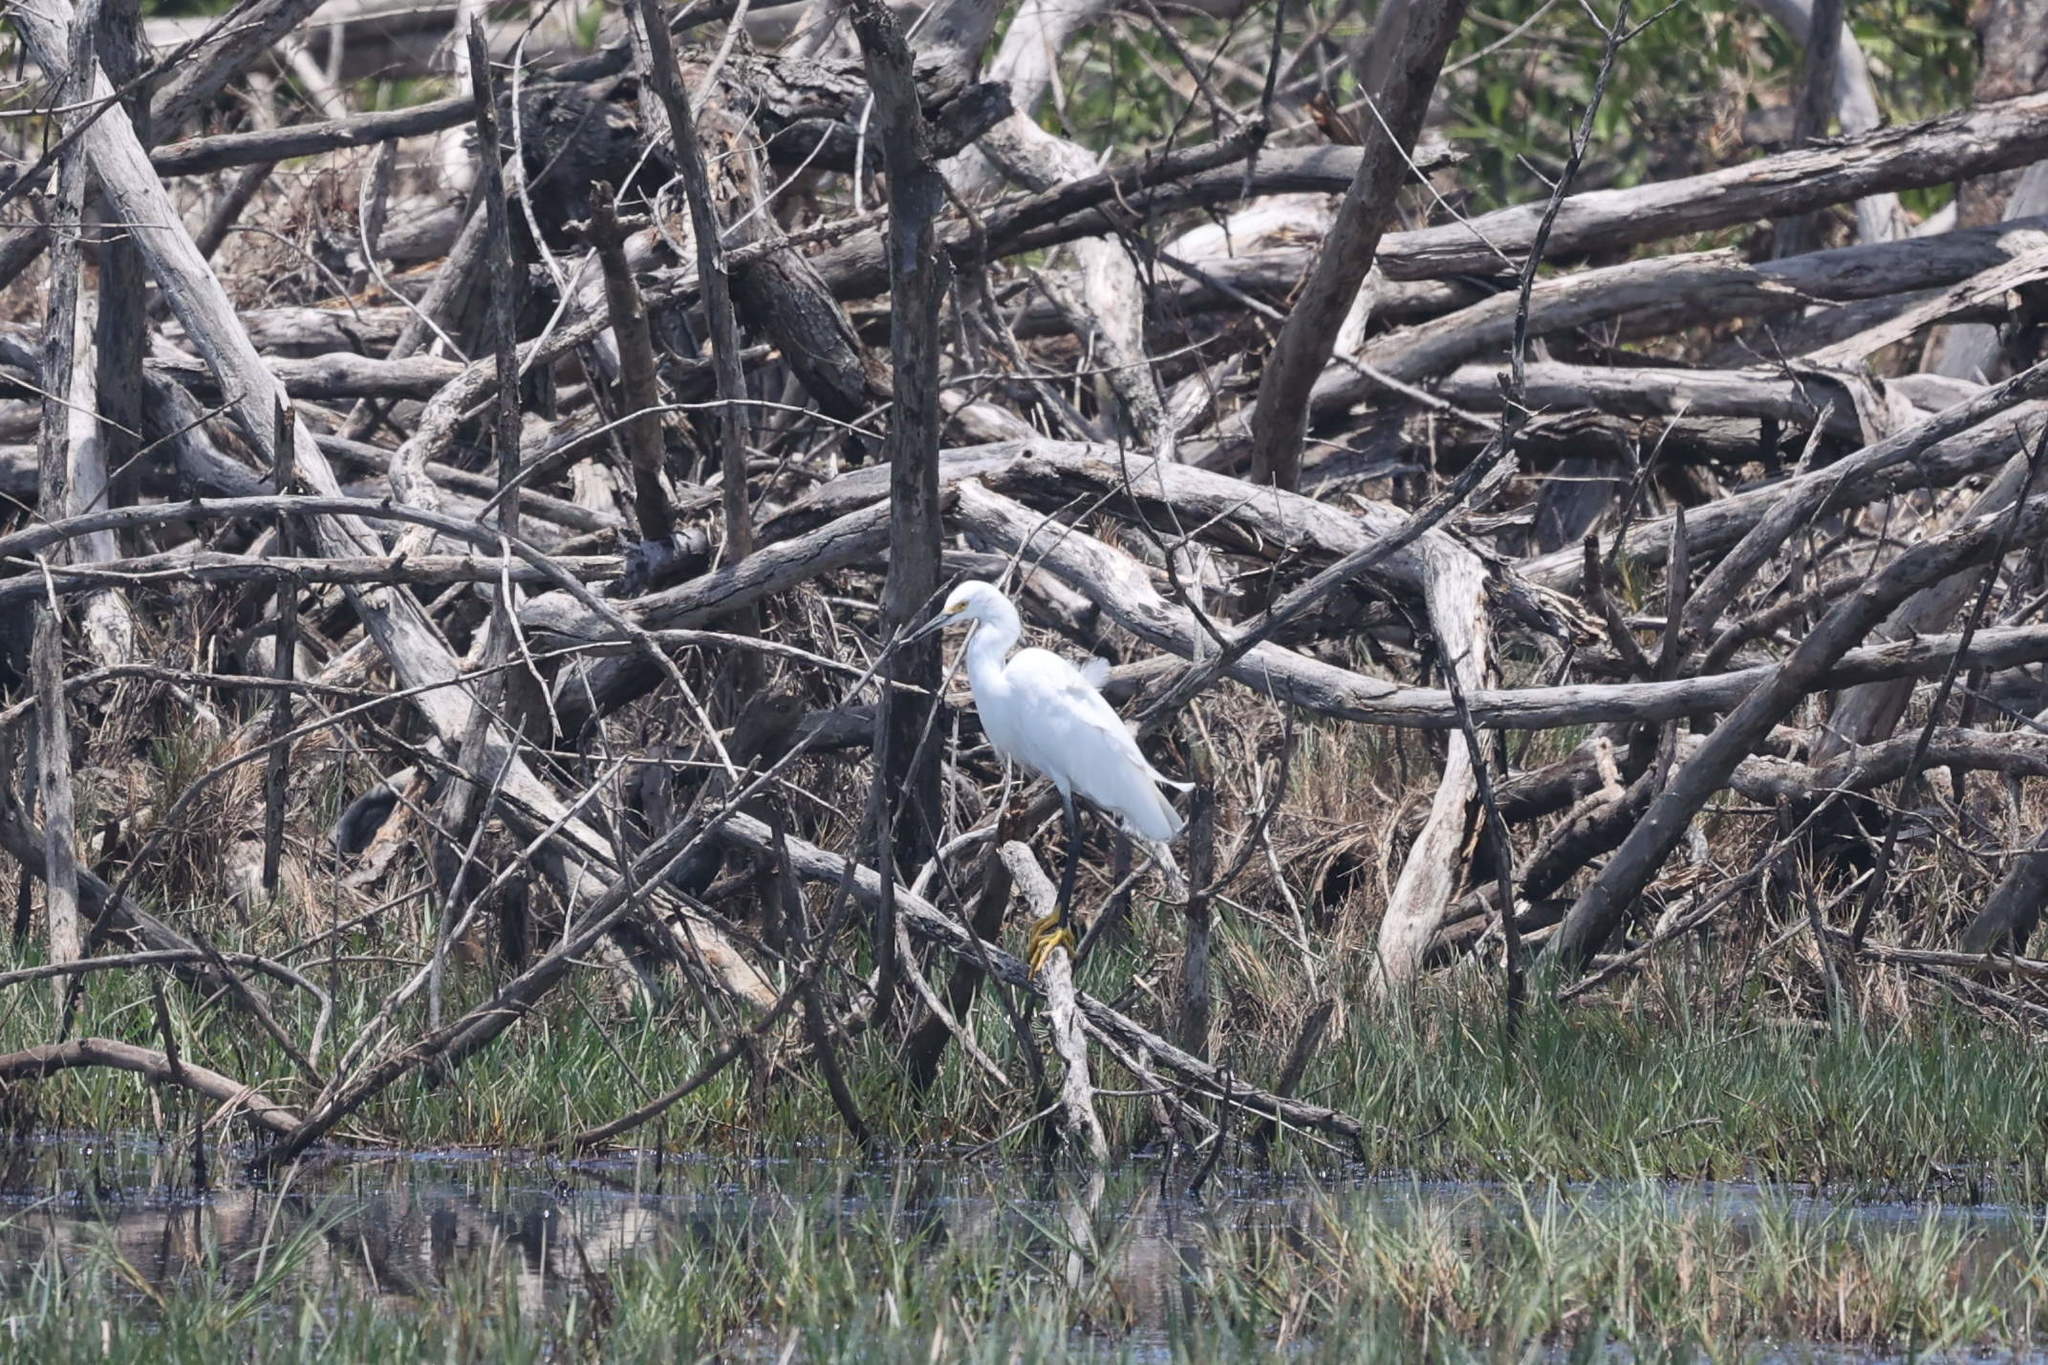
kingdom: Animalia
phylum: Chordata
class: Aves
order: Pelecaniformes
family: Ardeidae
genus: Egretta
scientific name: Egretta thula
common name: Snowy egret
